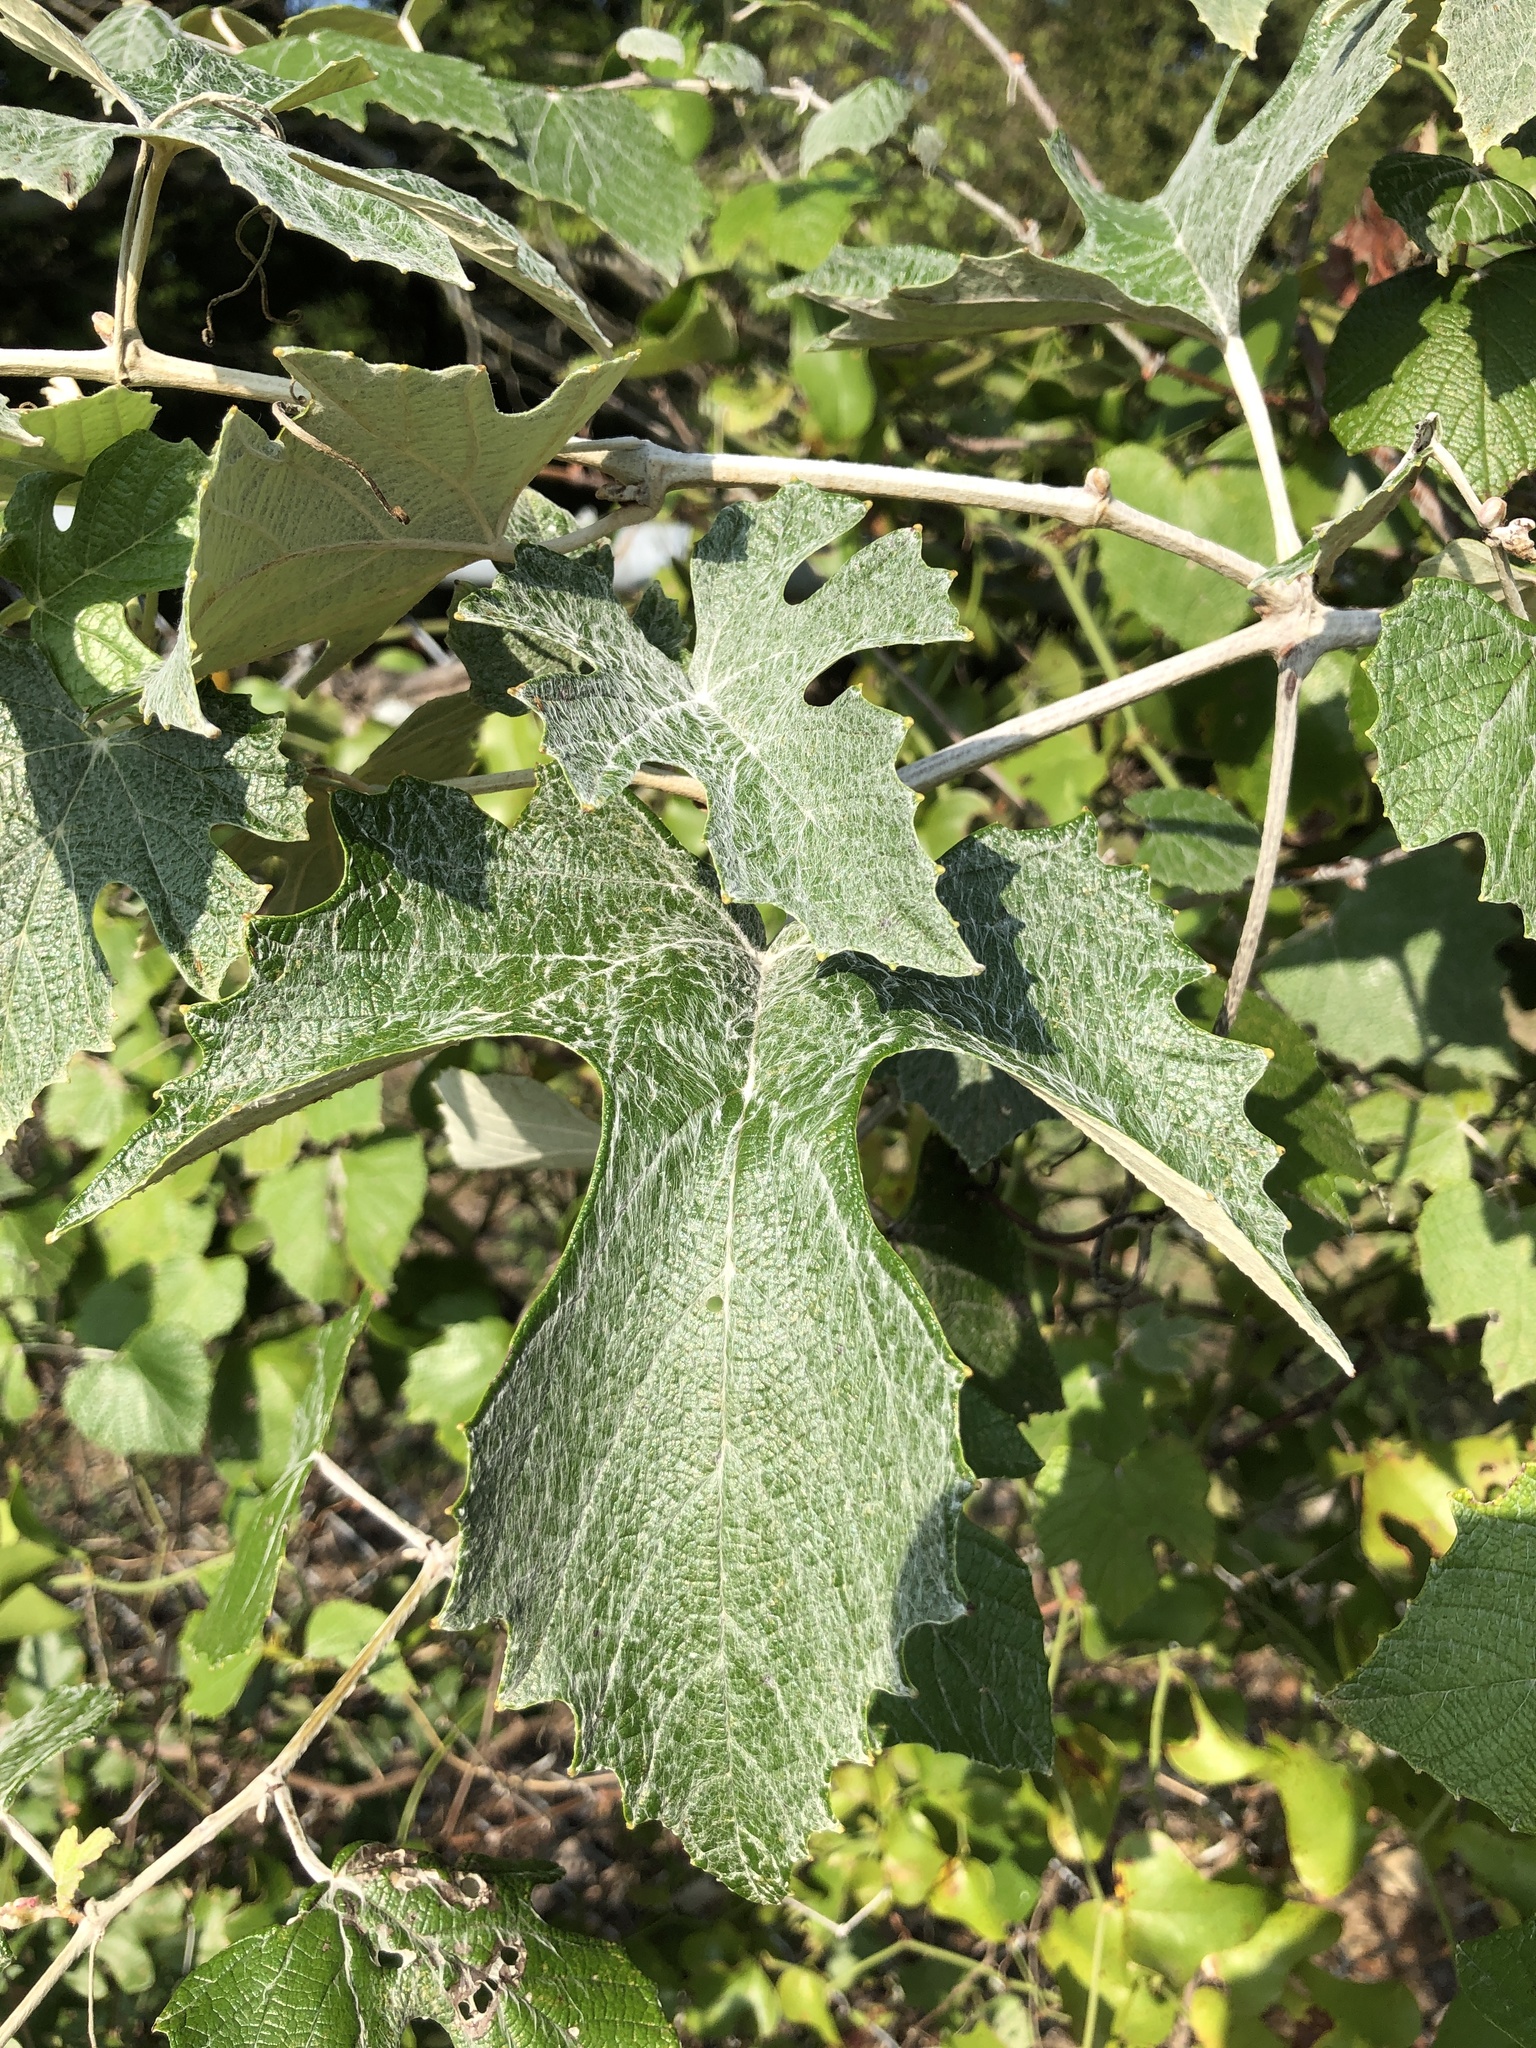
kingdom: Plantae
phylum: Tracheophyta
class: Magnoliopsida
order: Vitales
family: Vitaceae
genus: Vitis
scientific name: Vitis mustangensis
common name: Mustang grape
